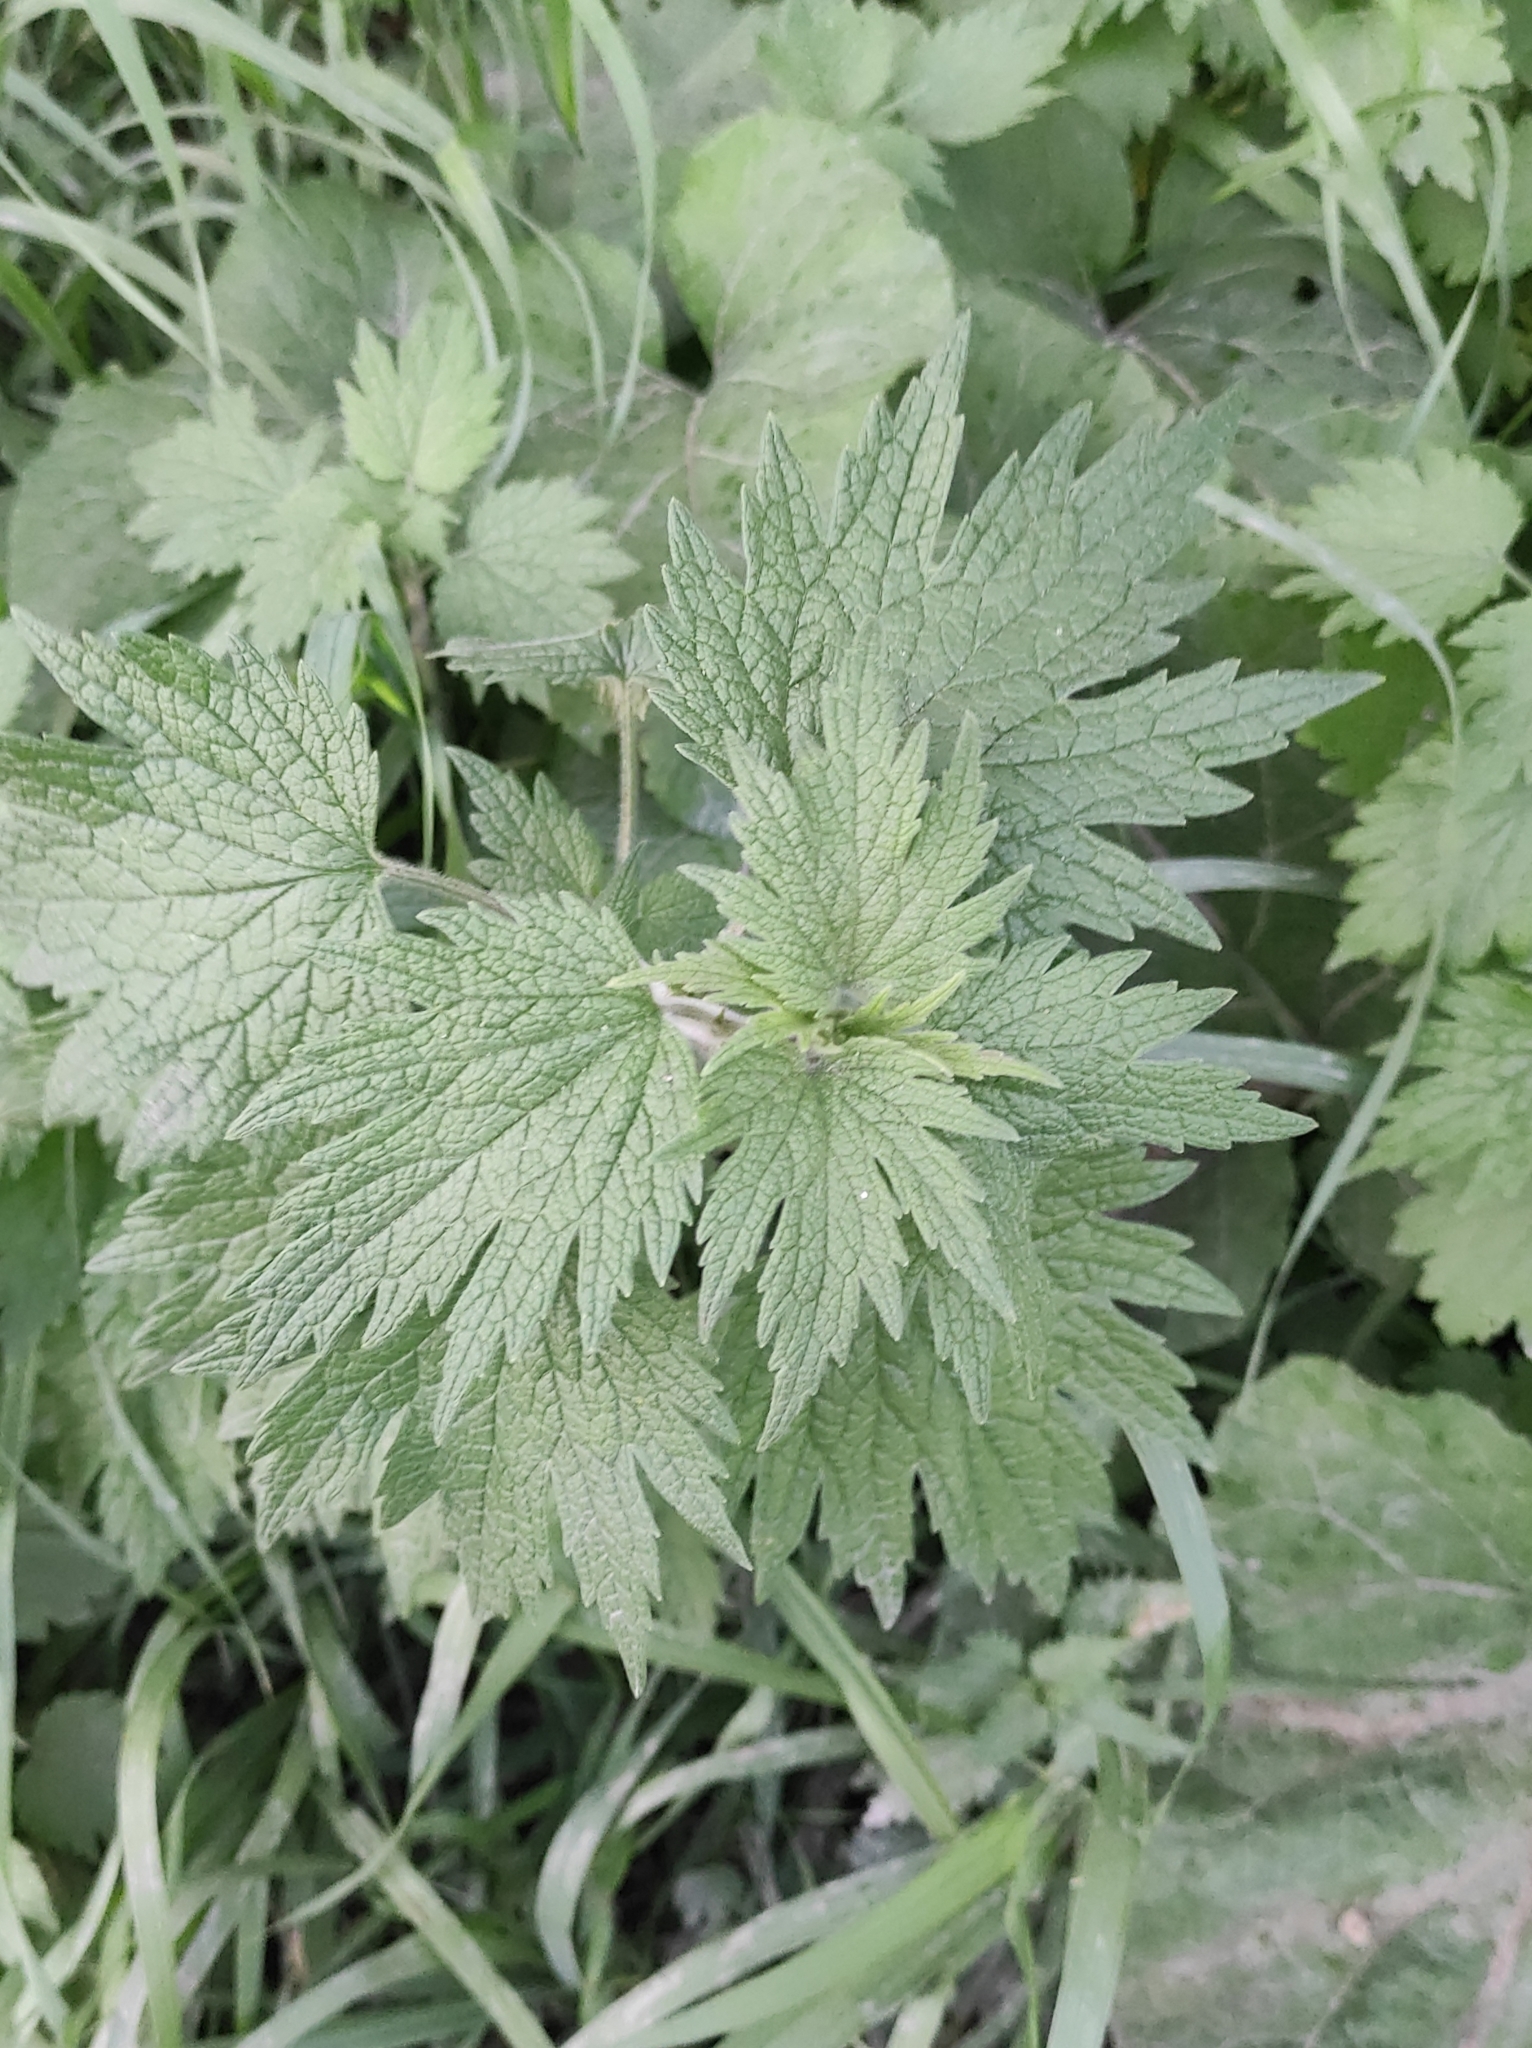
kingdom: Plantae
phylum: Tracheophyta
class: Magnoliopsida
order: Lamiales
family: Lamiaceae
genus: Leonurus
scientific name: Leonurus quinquelobatus
